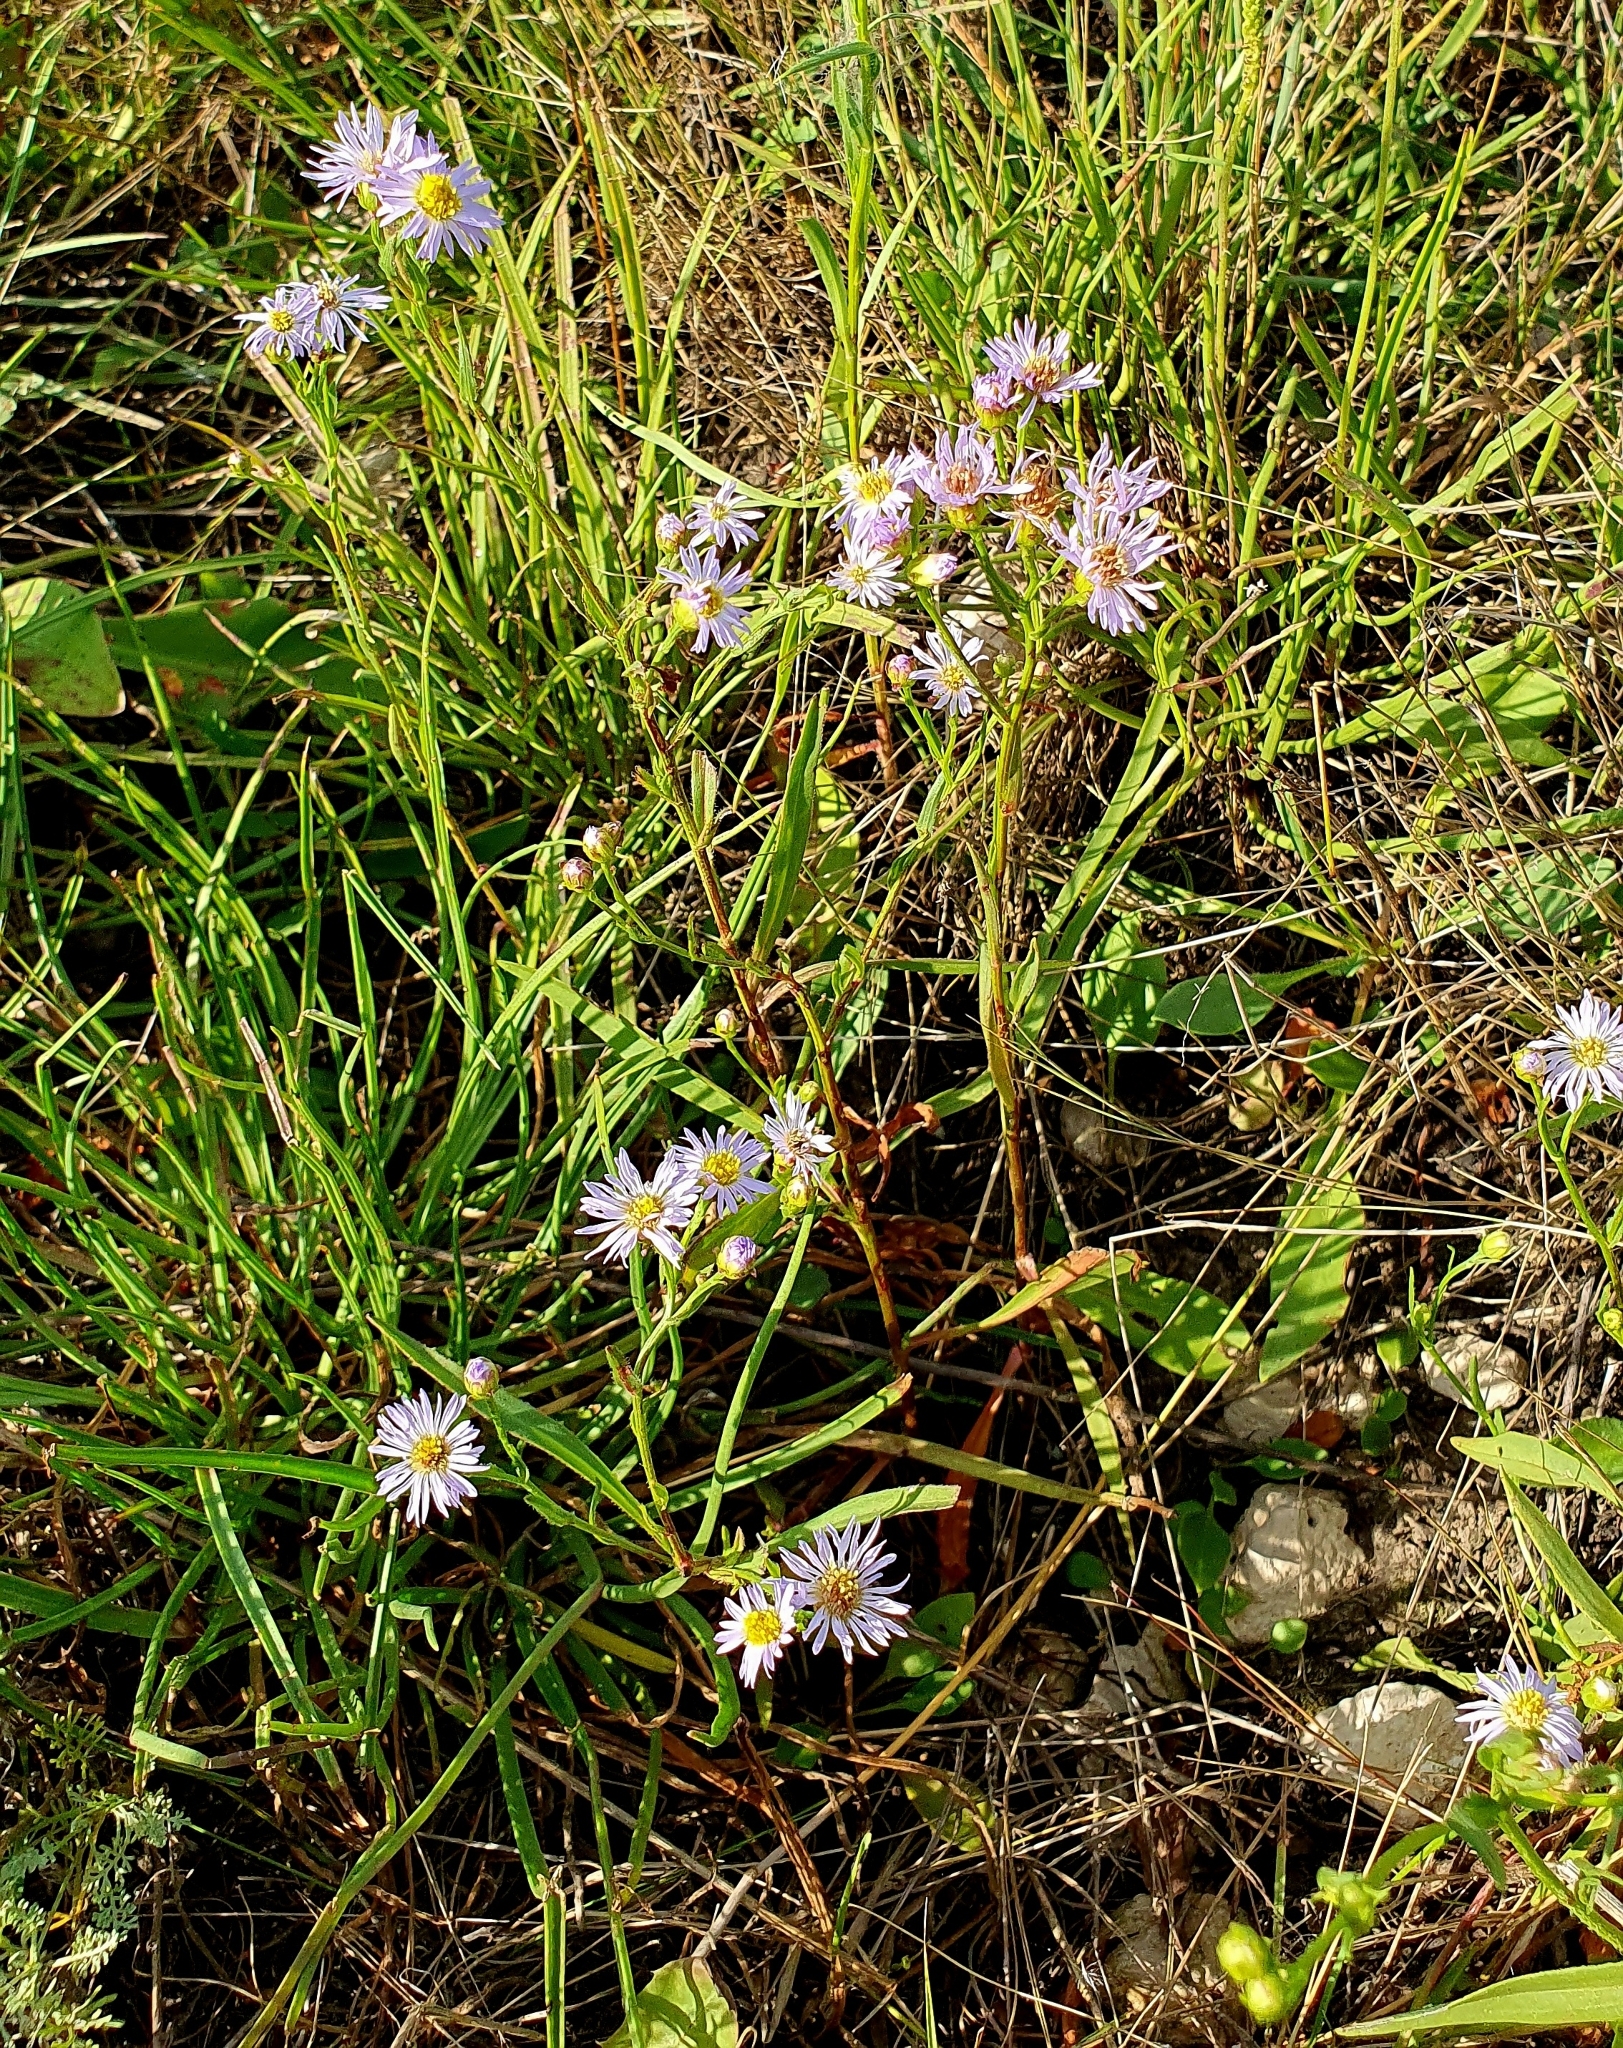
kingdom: Plantae
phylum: Tracheophyta
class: Magnoliopsida
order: Asterales
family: Asteraceae
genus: Tripolium
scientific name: Tripolium pannonicum
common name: Sea aster
